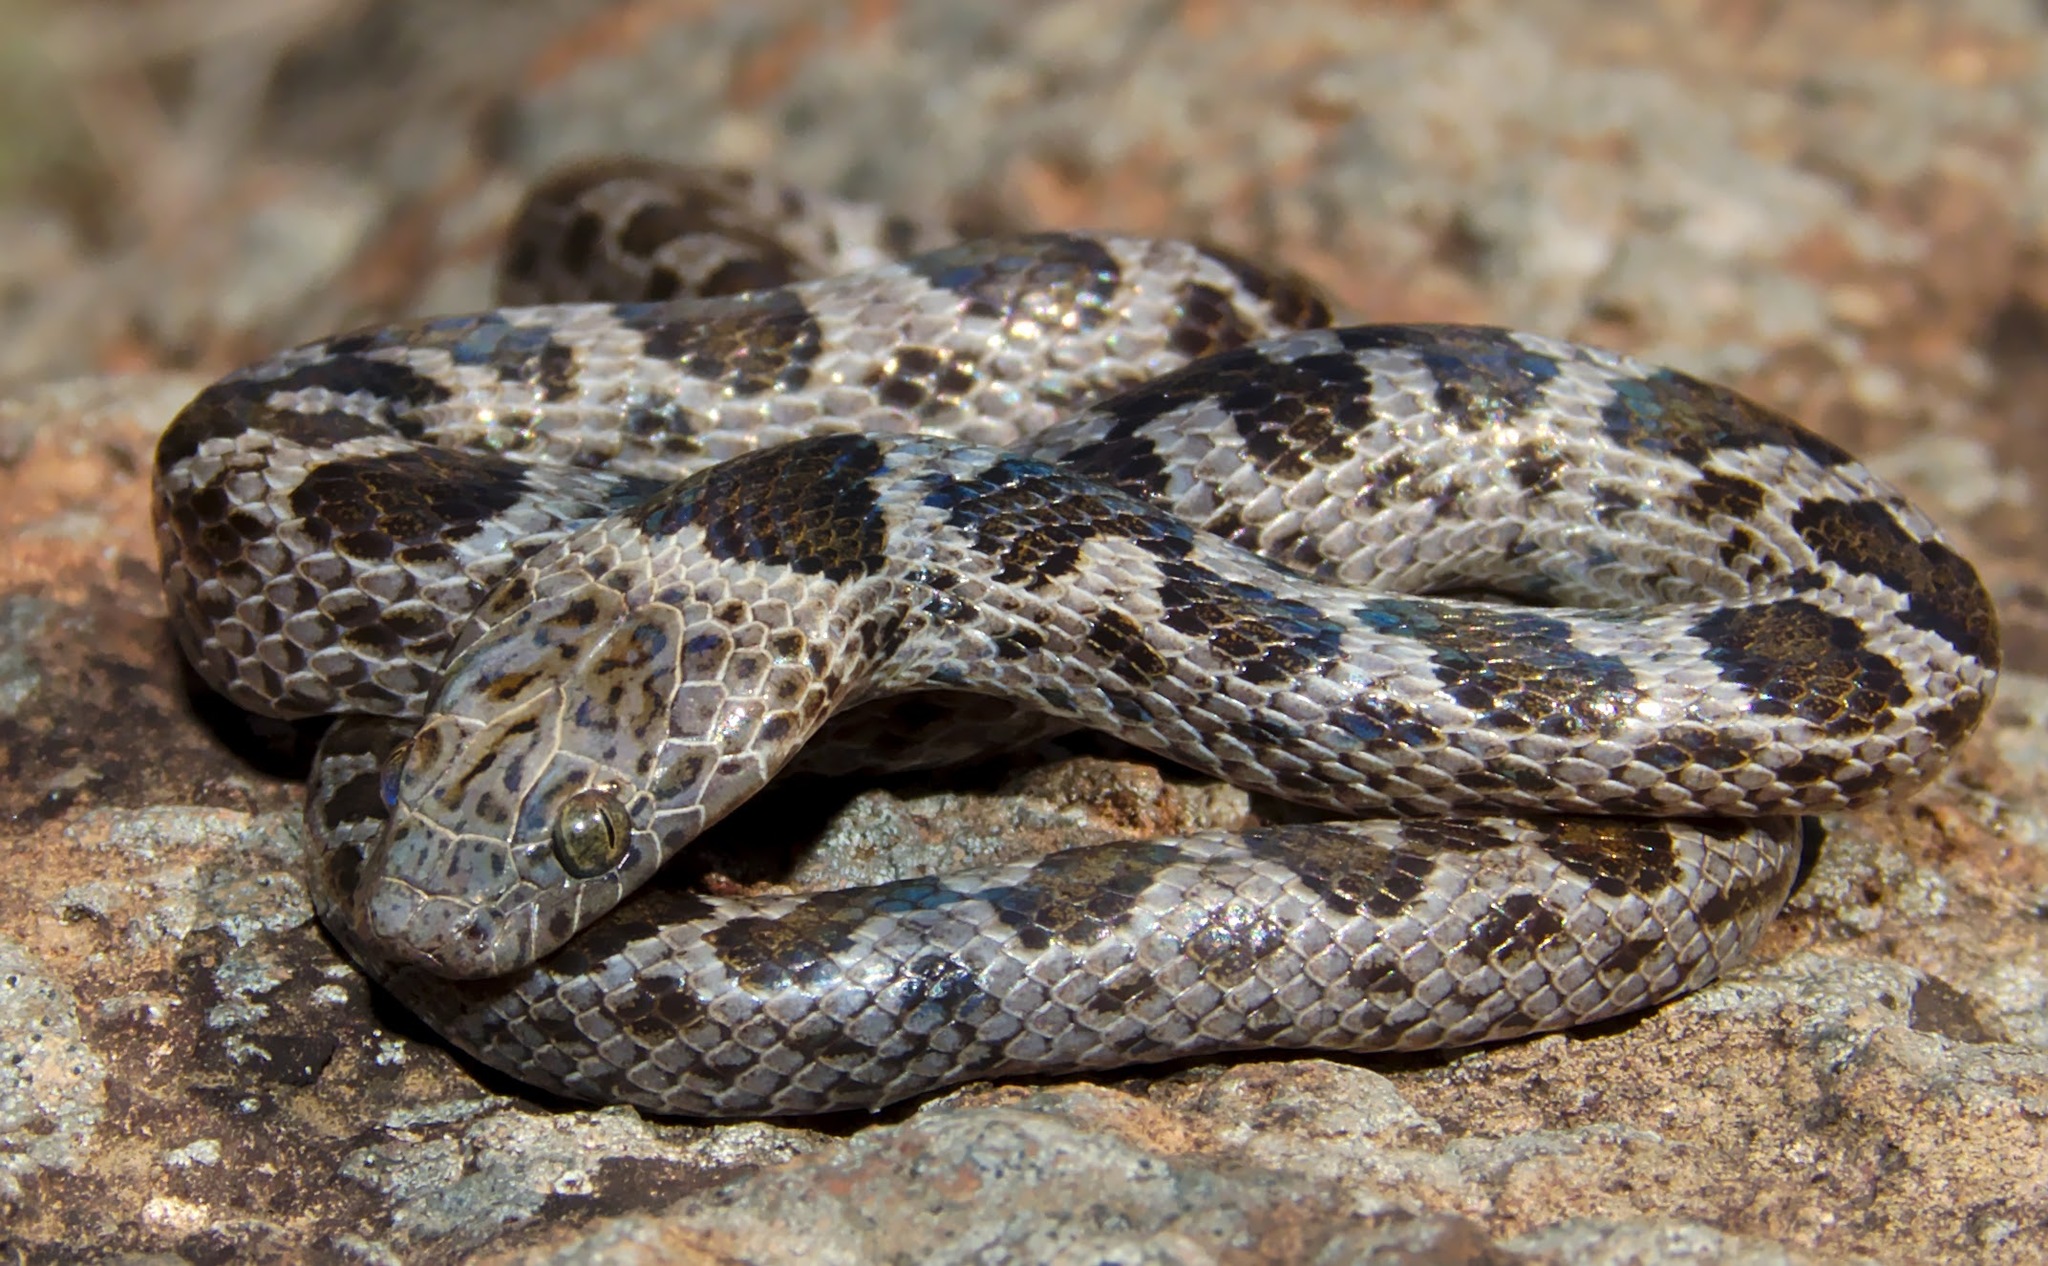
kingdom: Animalia
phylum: Chordata
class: Squamata
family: Lamprophiidae
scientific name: Lamprophiidae
